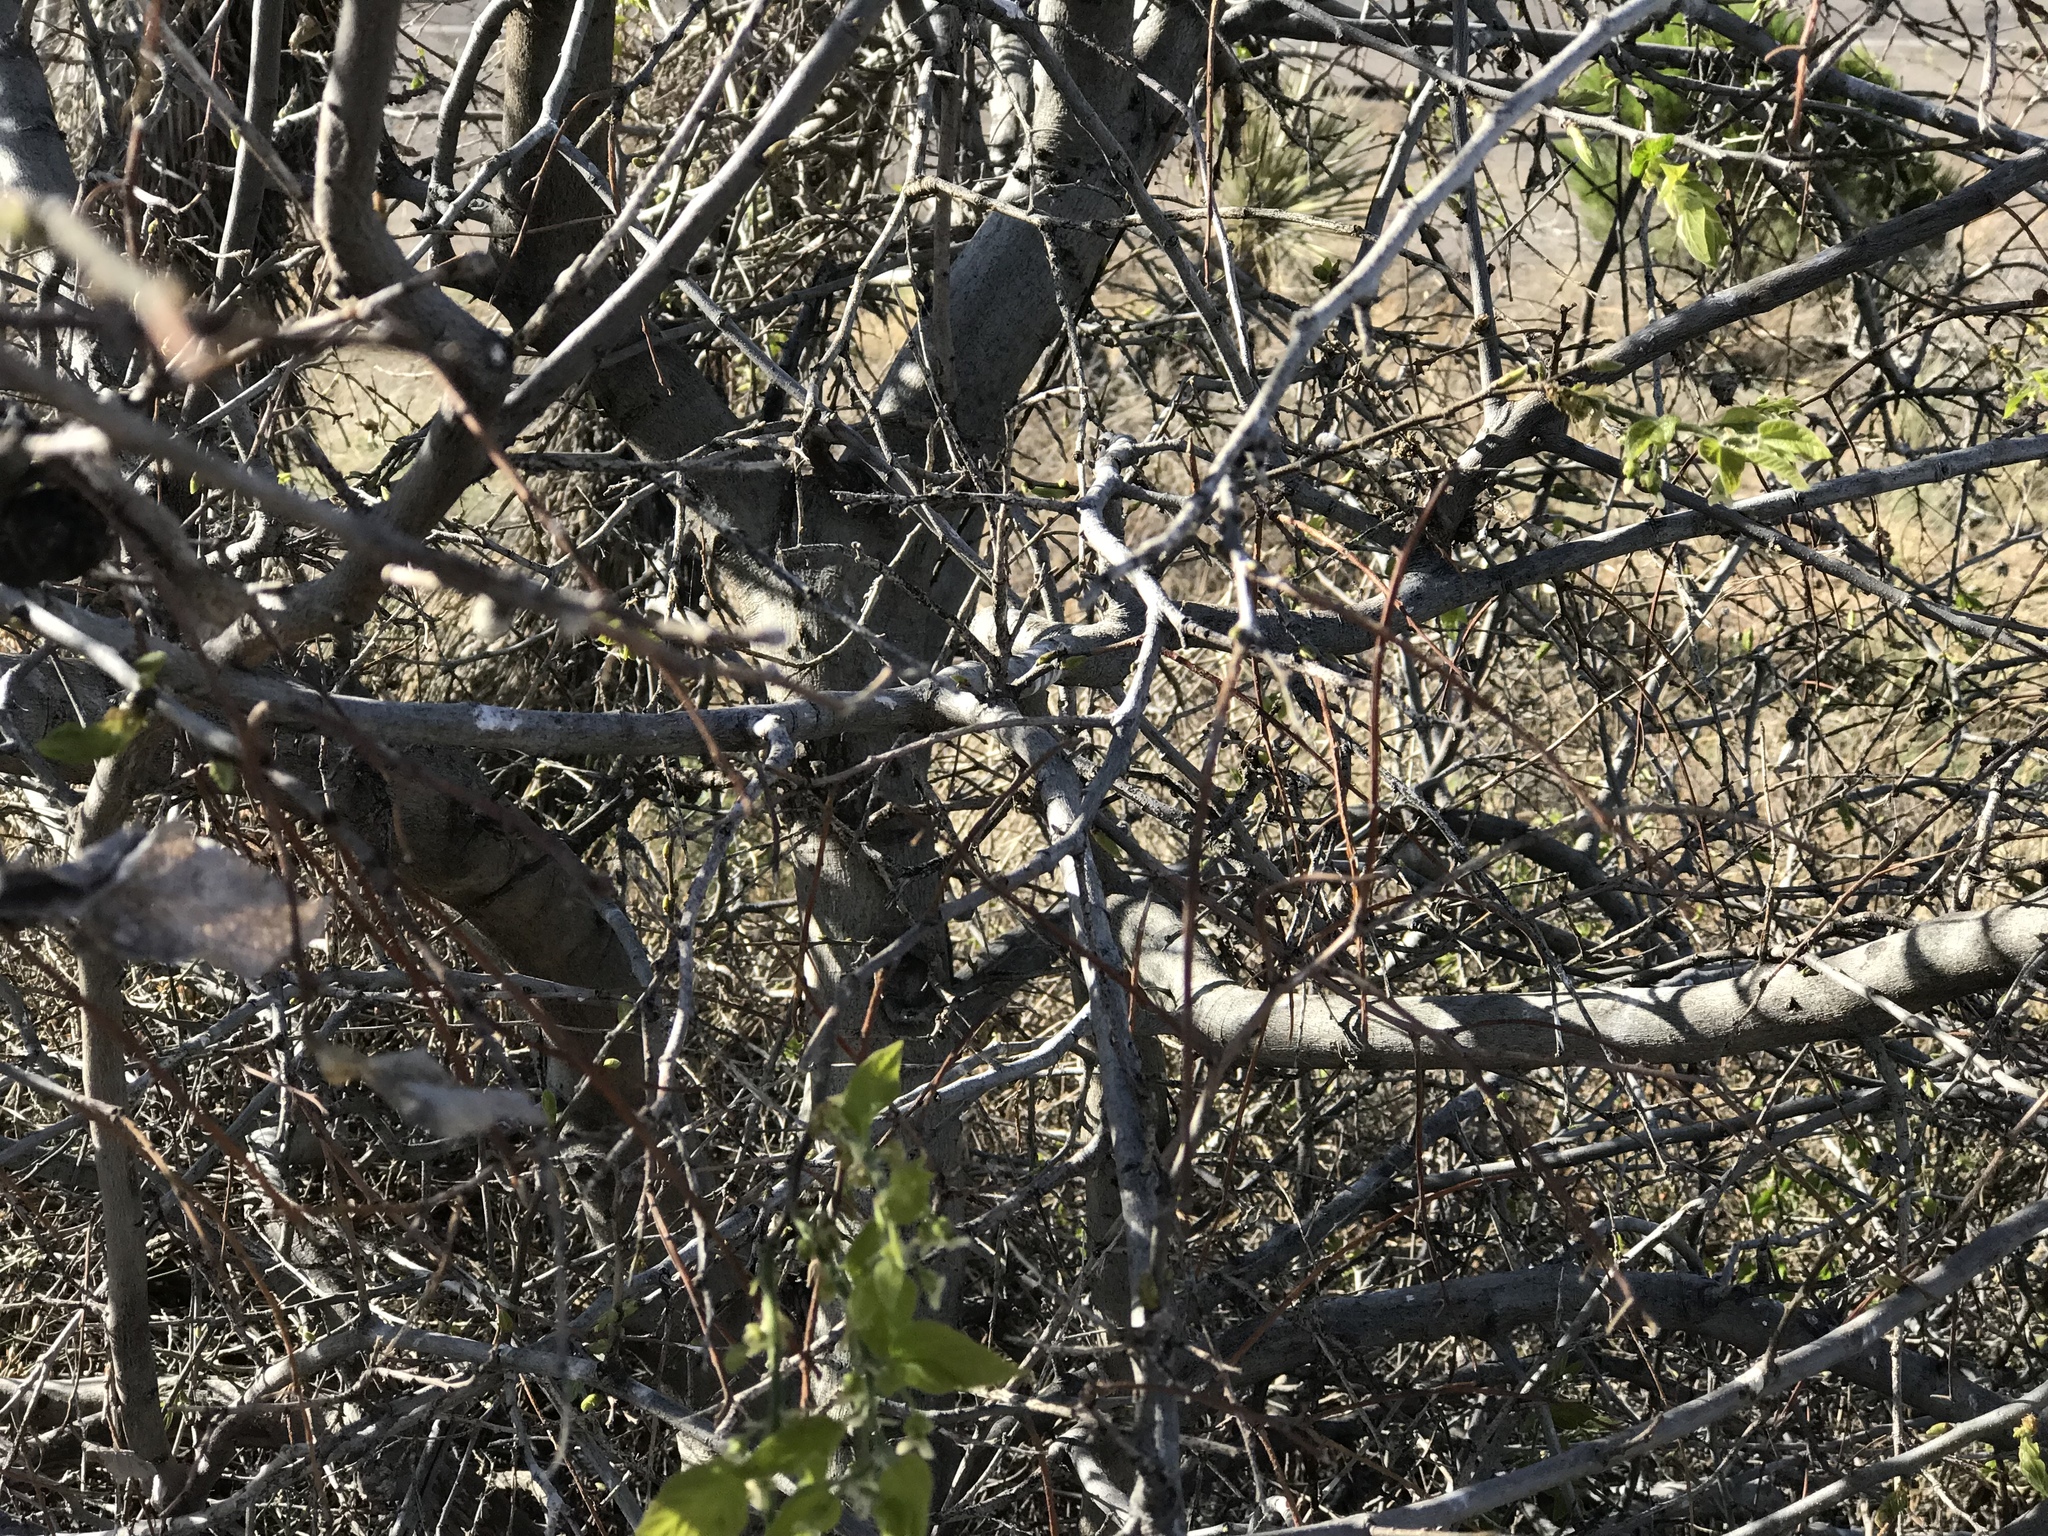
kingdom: Plantae
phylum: Tracheophyta
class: Magnoliopsida
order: Rosales
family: Cannabaceae
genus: Celtis
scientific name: Celtis reticulata
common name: Netleaf hackberry
